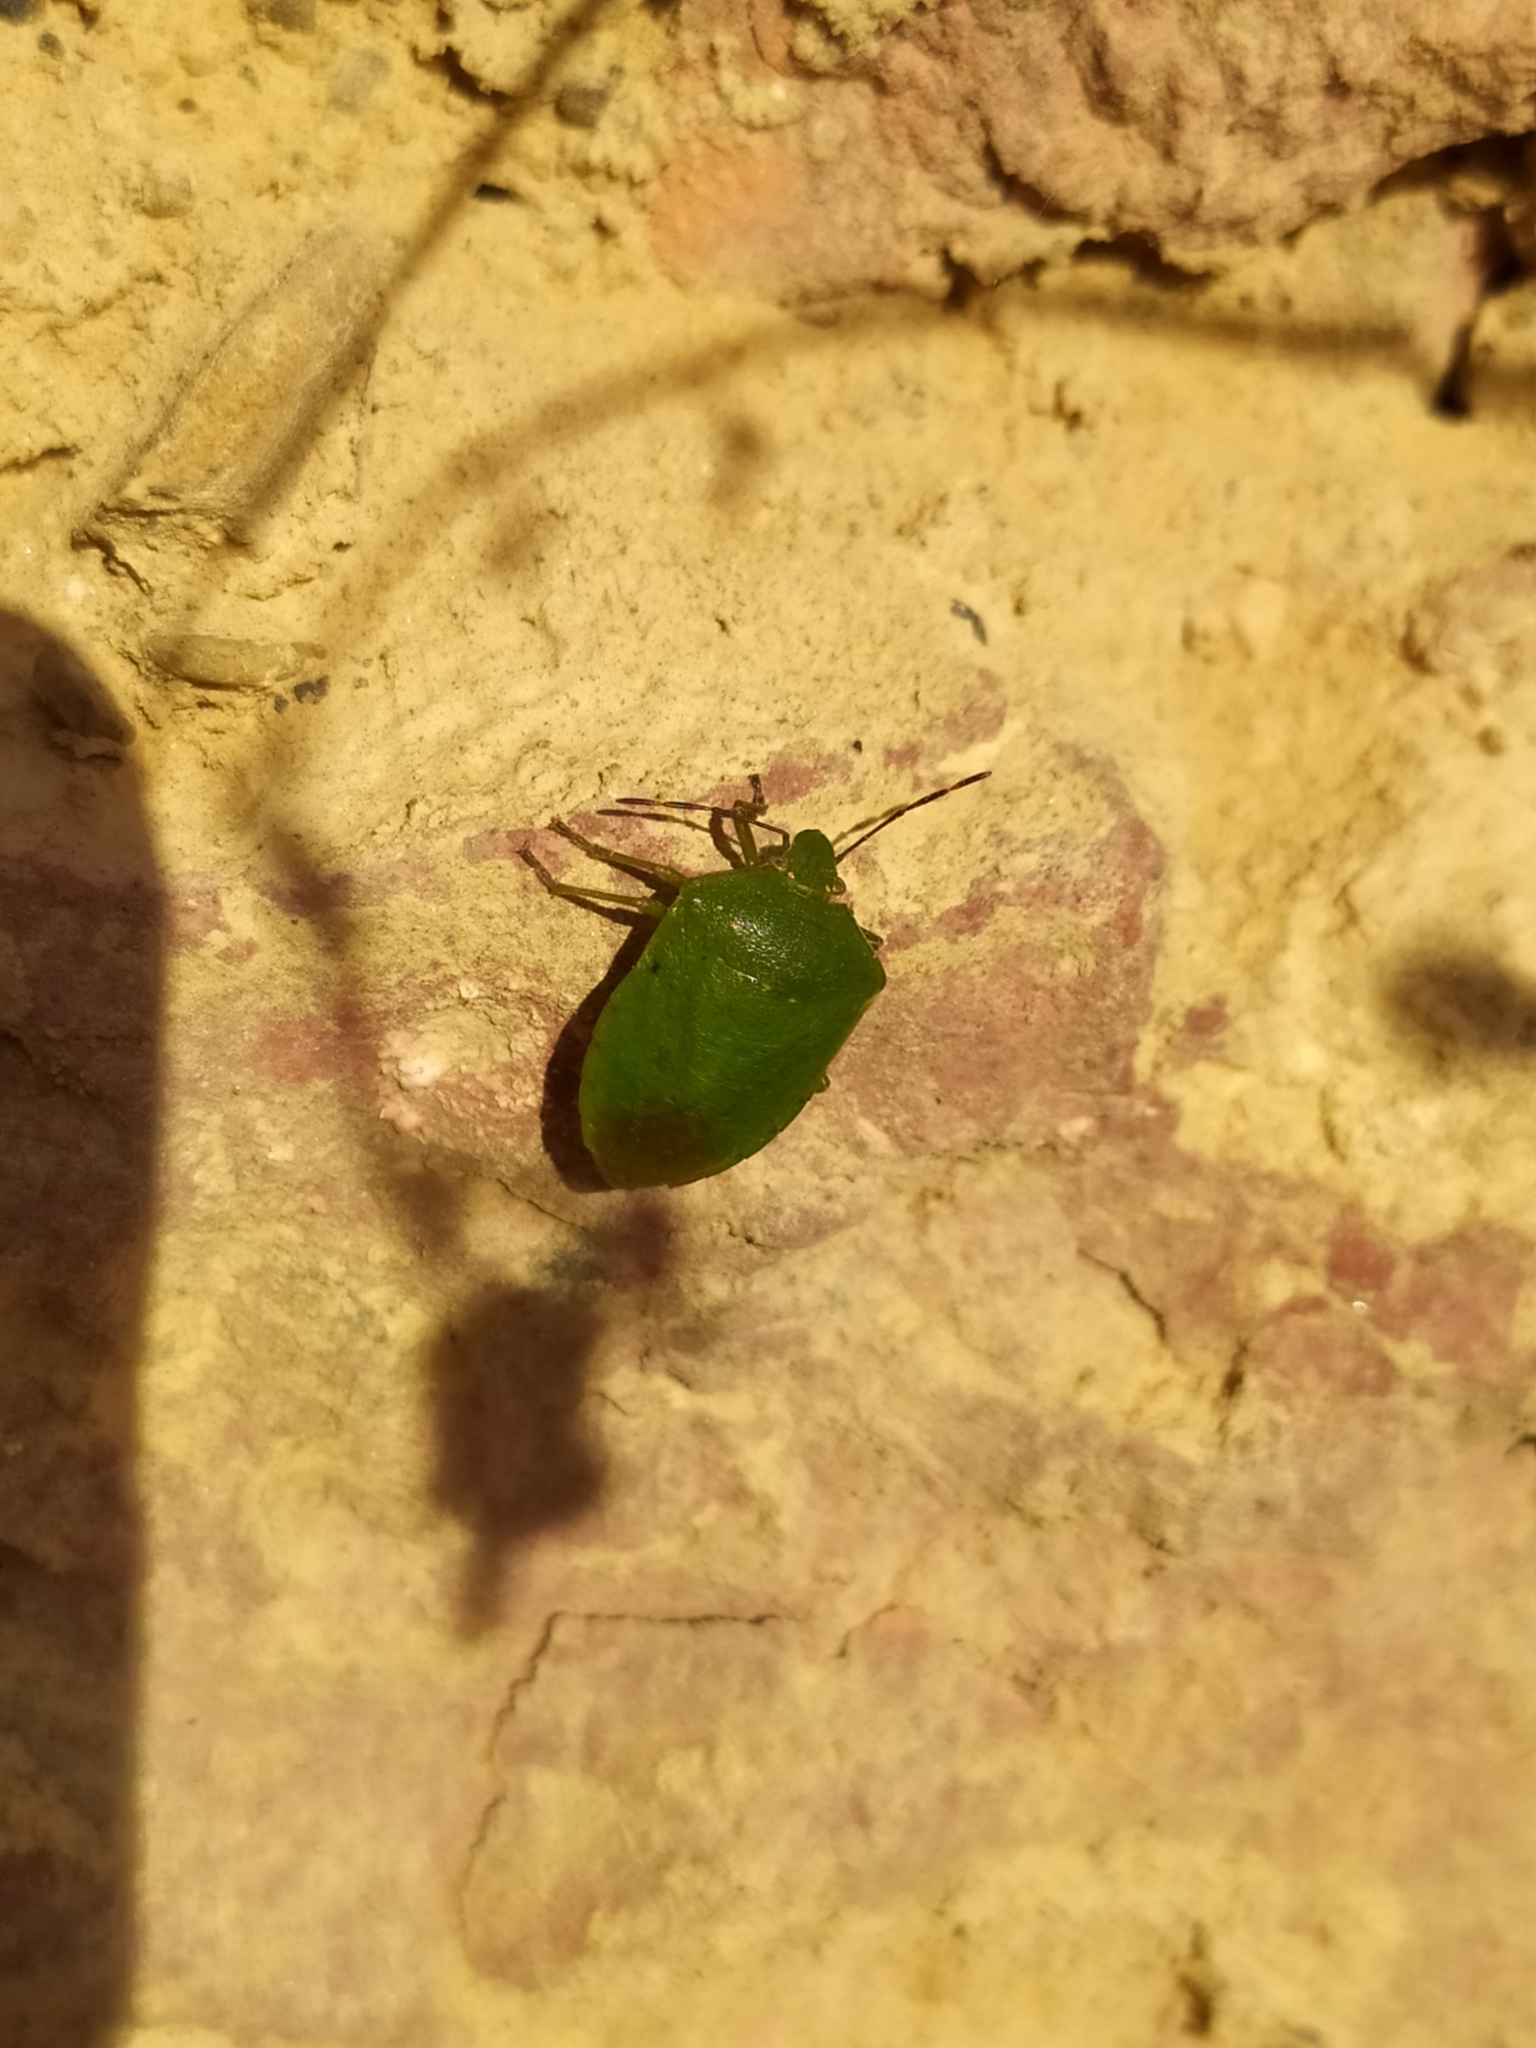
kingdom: Animalia
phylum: Arthropoda
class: Insecta
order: Hemiptera
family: Pentatomidae
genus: Nezara
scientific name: Nezara viridula
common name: Southern green stink bug
